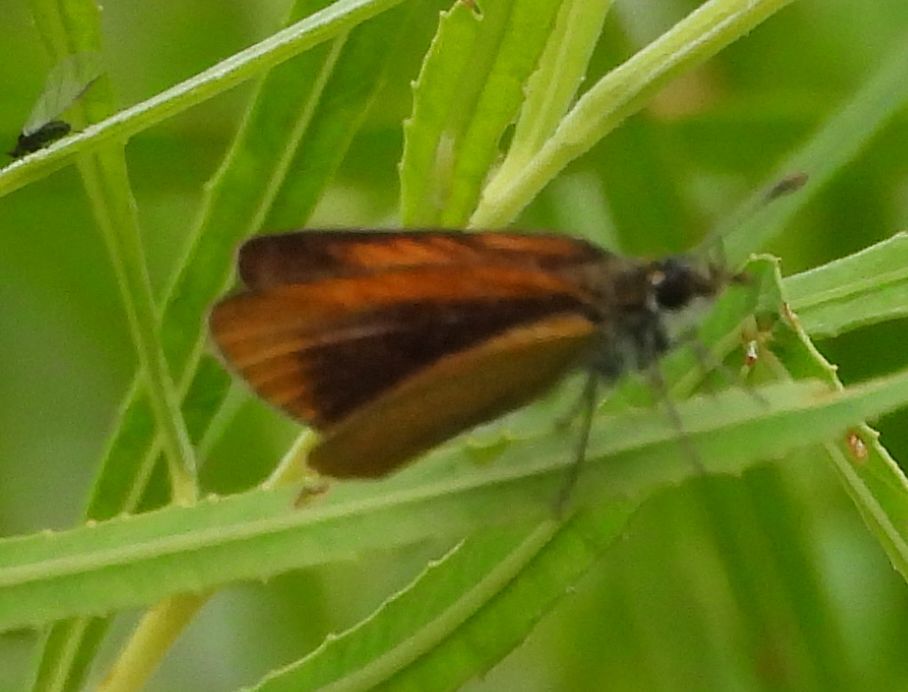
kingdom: Animalia
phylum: Arthropoda
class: Insecta
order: Lepidoptera
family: Hesperiidae
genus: Ancyloxypha
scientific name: Ancyloxypha numitor
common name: Least skipper
